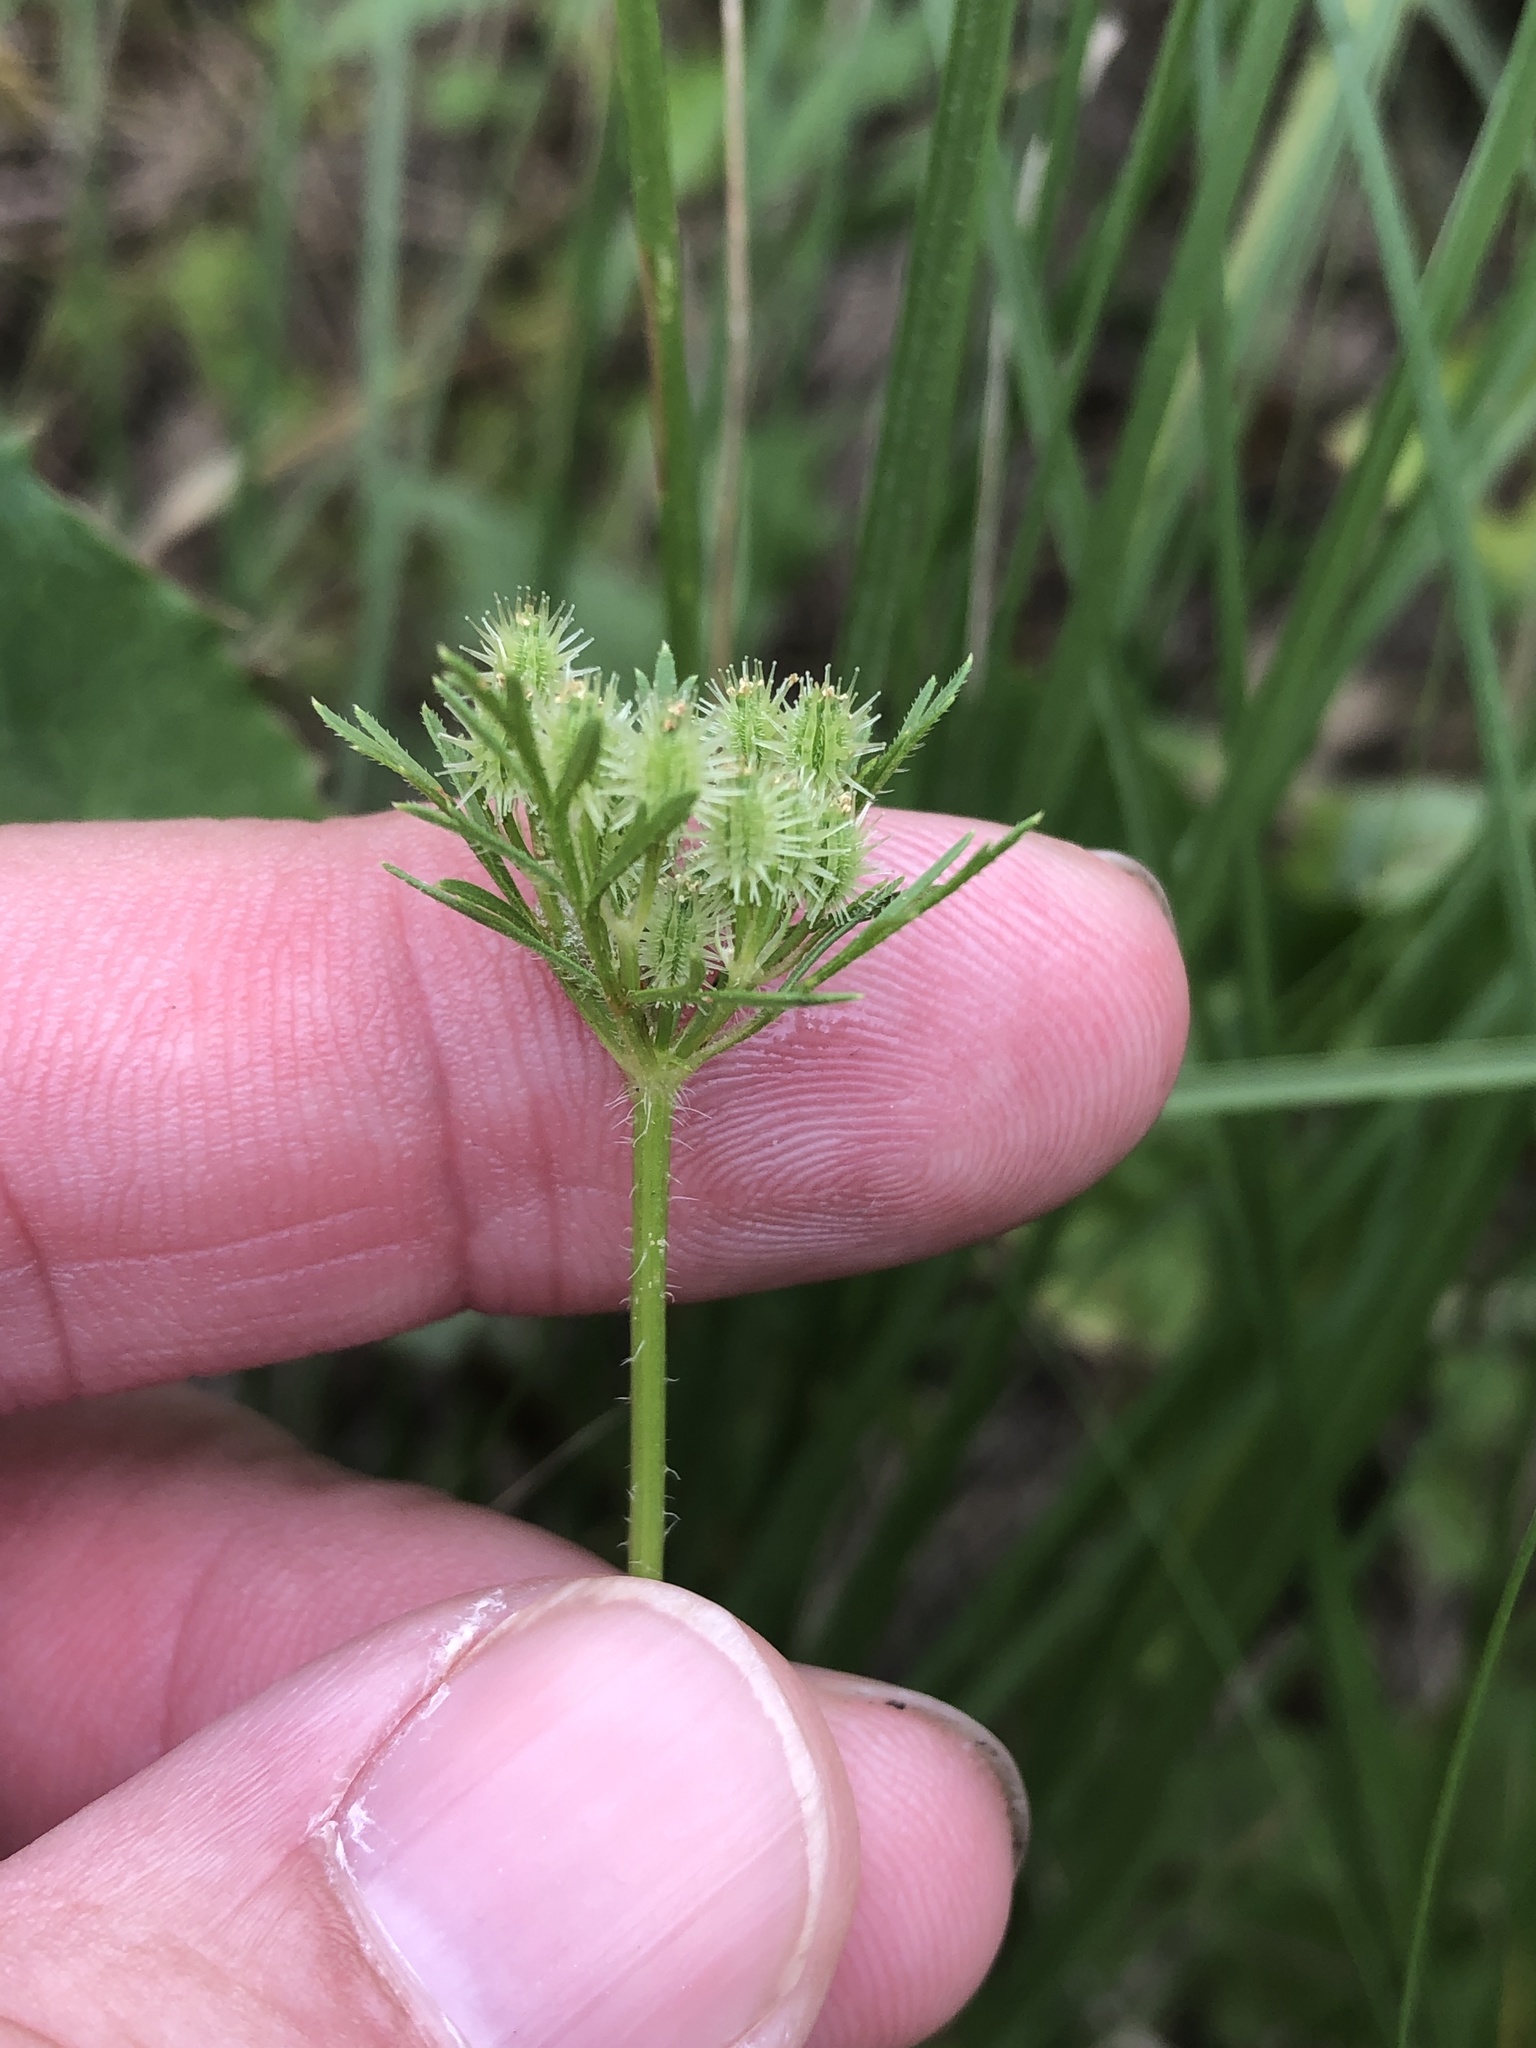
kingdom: Plantae
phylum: Tracheophyta
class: Magnoliopsida
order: Apiales
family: Apiaceae
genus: Daucus
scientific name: Daucus pusillus
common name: Southwest wild carrot
